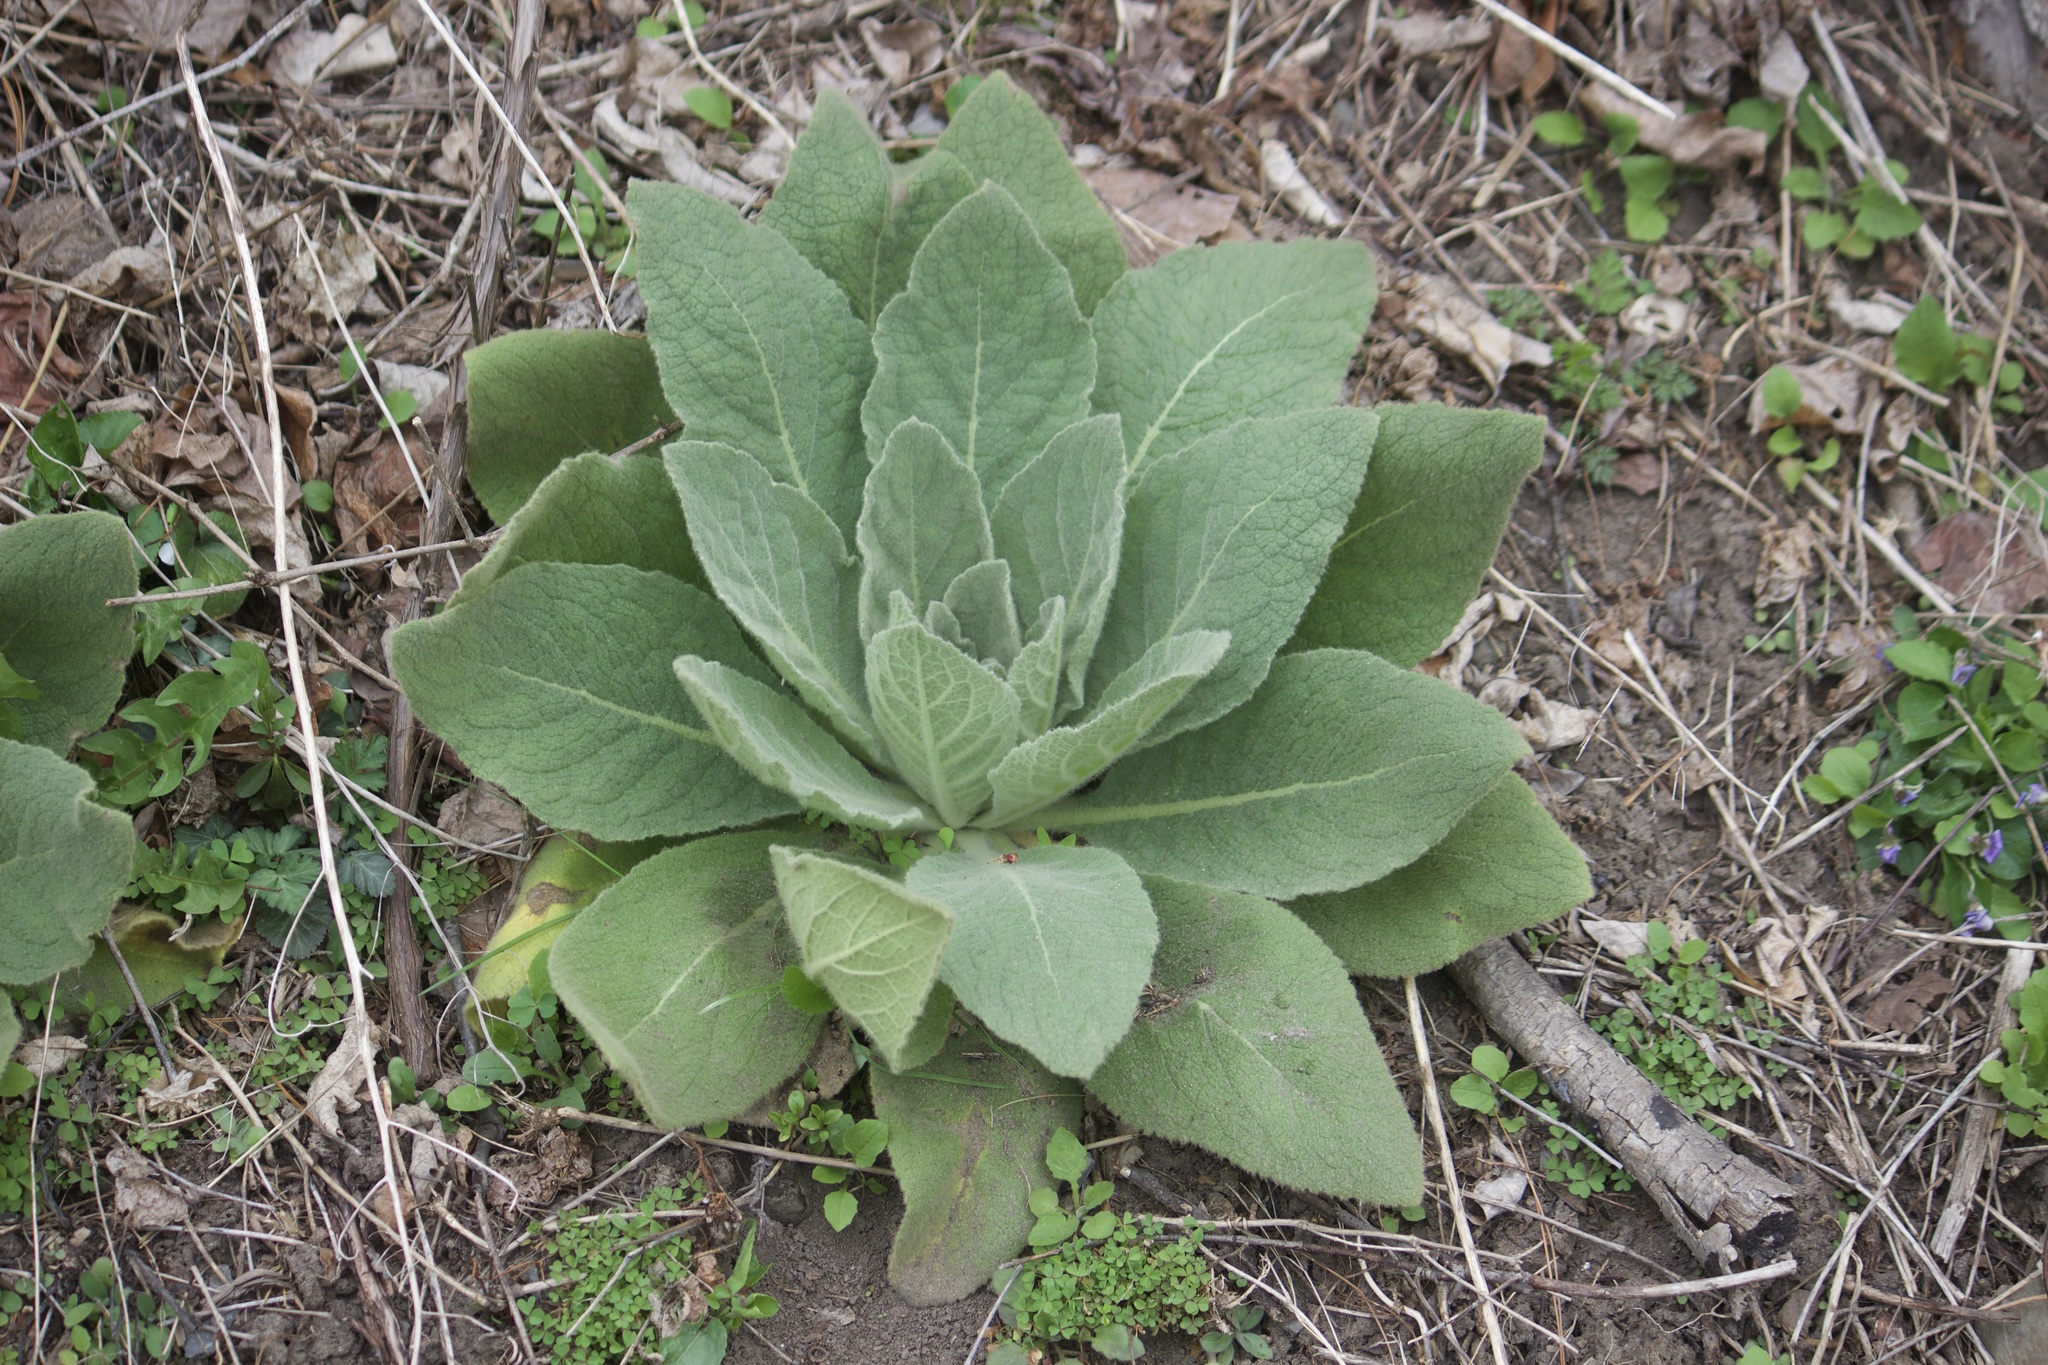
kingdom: Plantae
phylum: Tracheophyta
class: Magnoliopsida
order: Lamiales
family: Scrophulariaceae
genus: Verbascum
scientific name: Verbascum thapsus
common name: Common mullein
